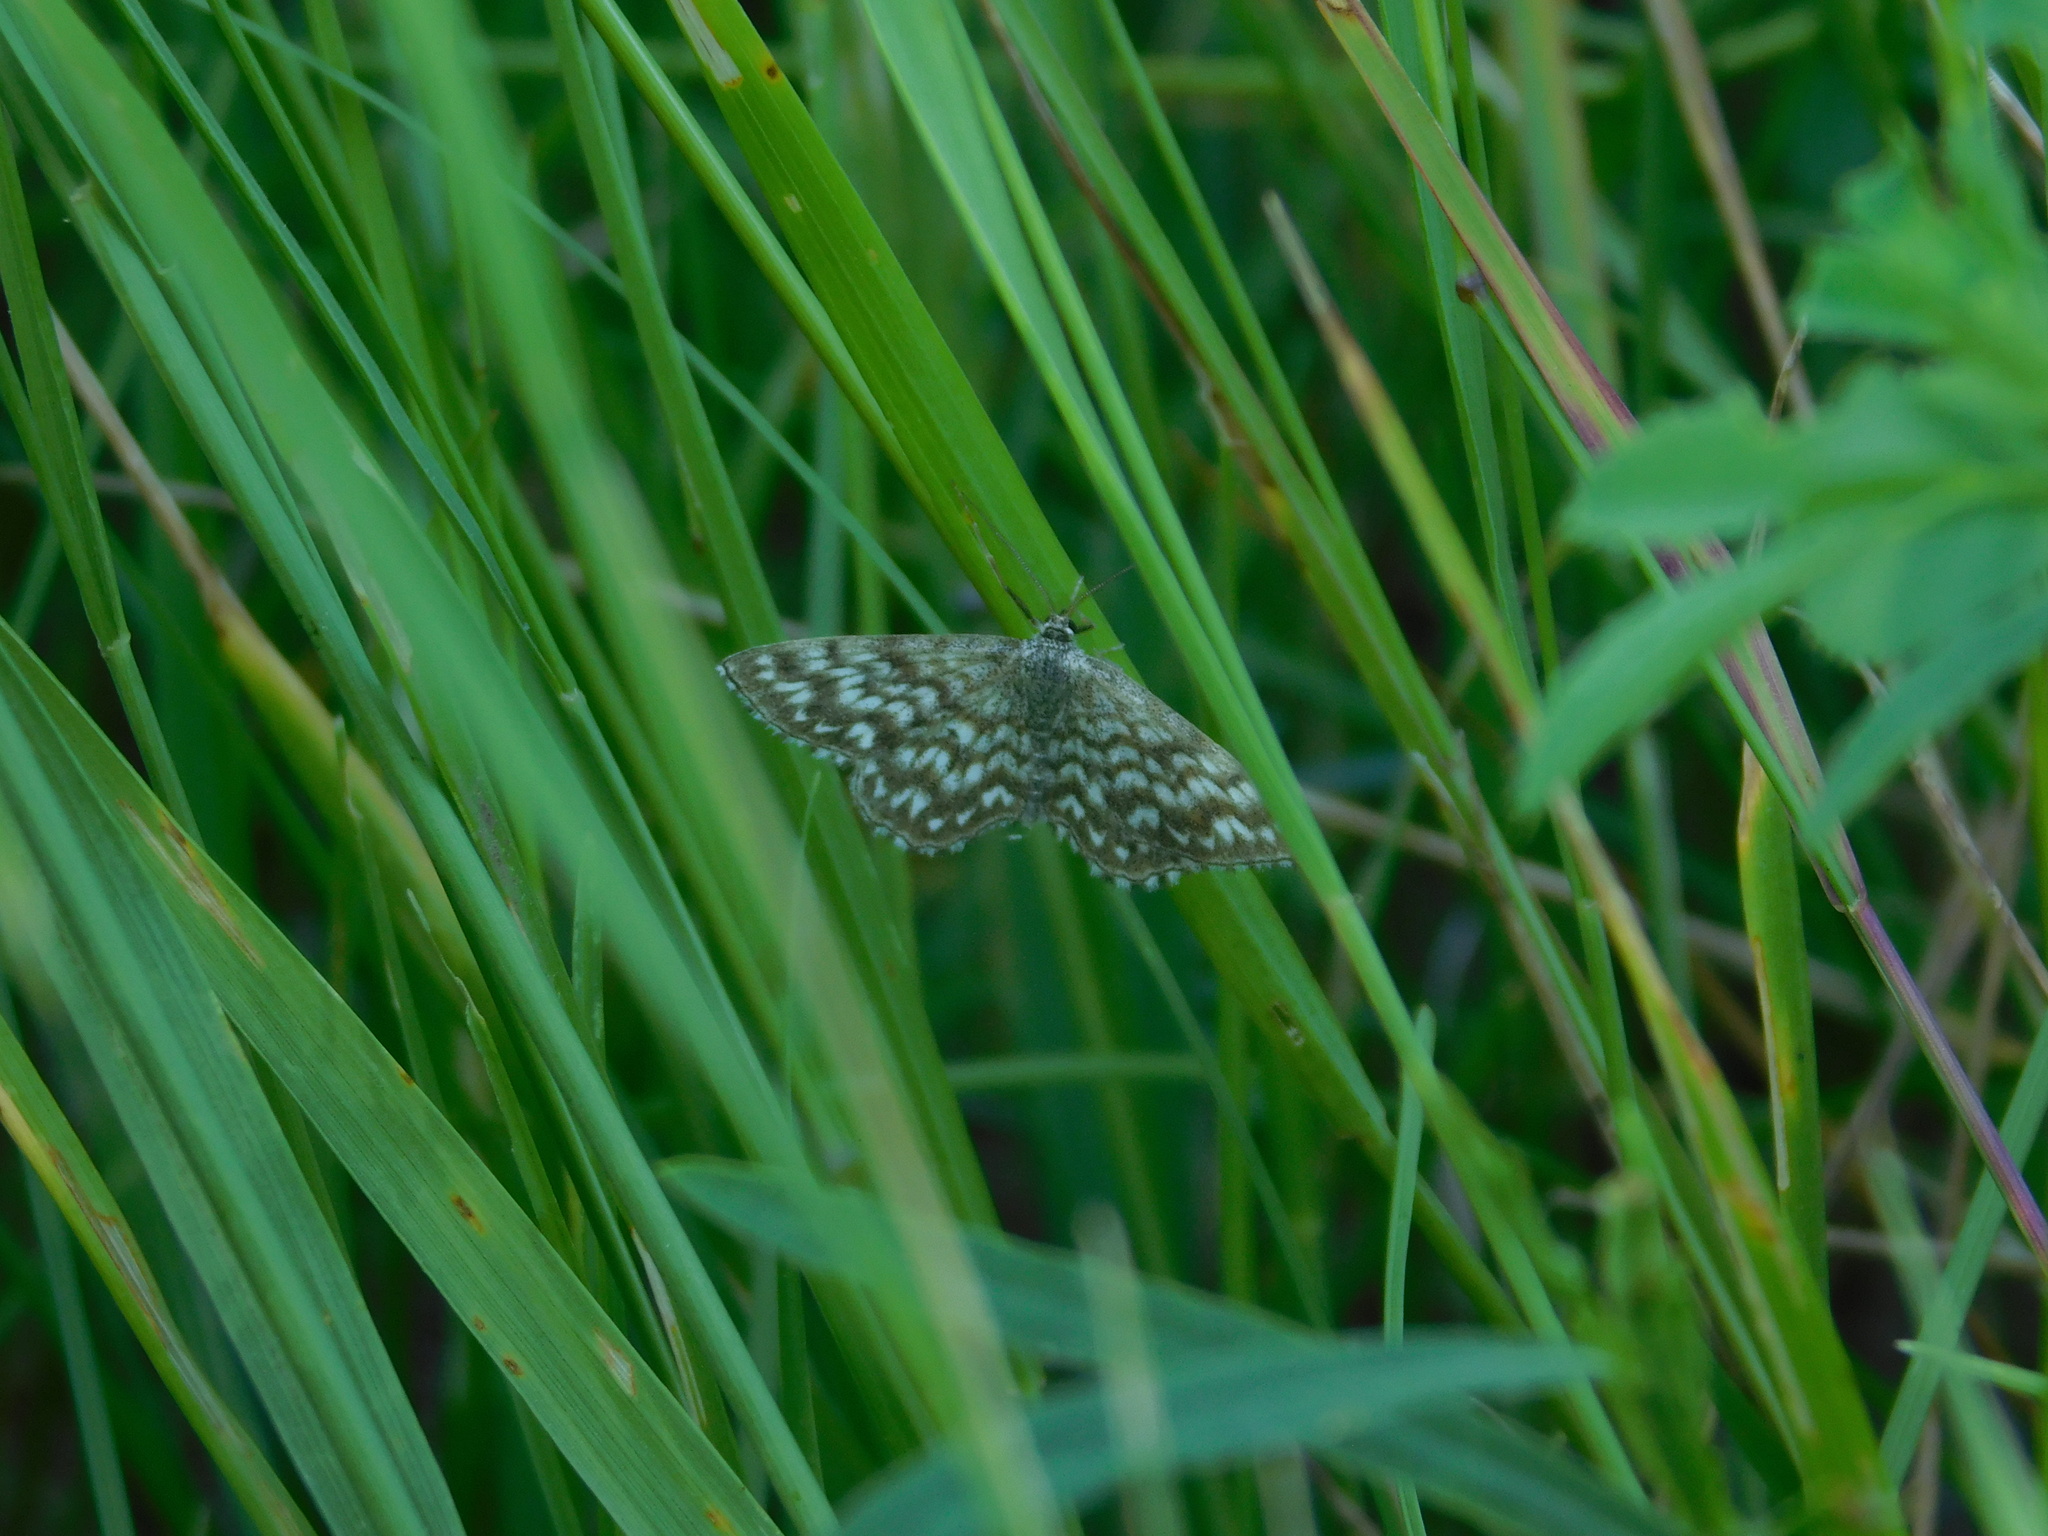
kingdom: Animalia
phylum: Arthropoda
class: Insecta
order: Lepidoptera
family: Geometridae
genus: Scopula
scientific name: Scopula tessellaria
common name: Dusky-brown wave
